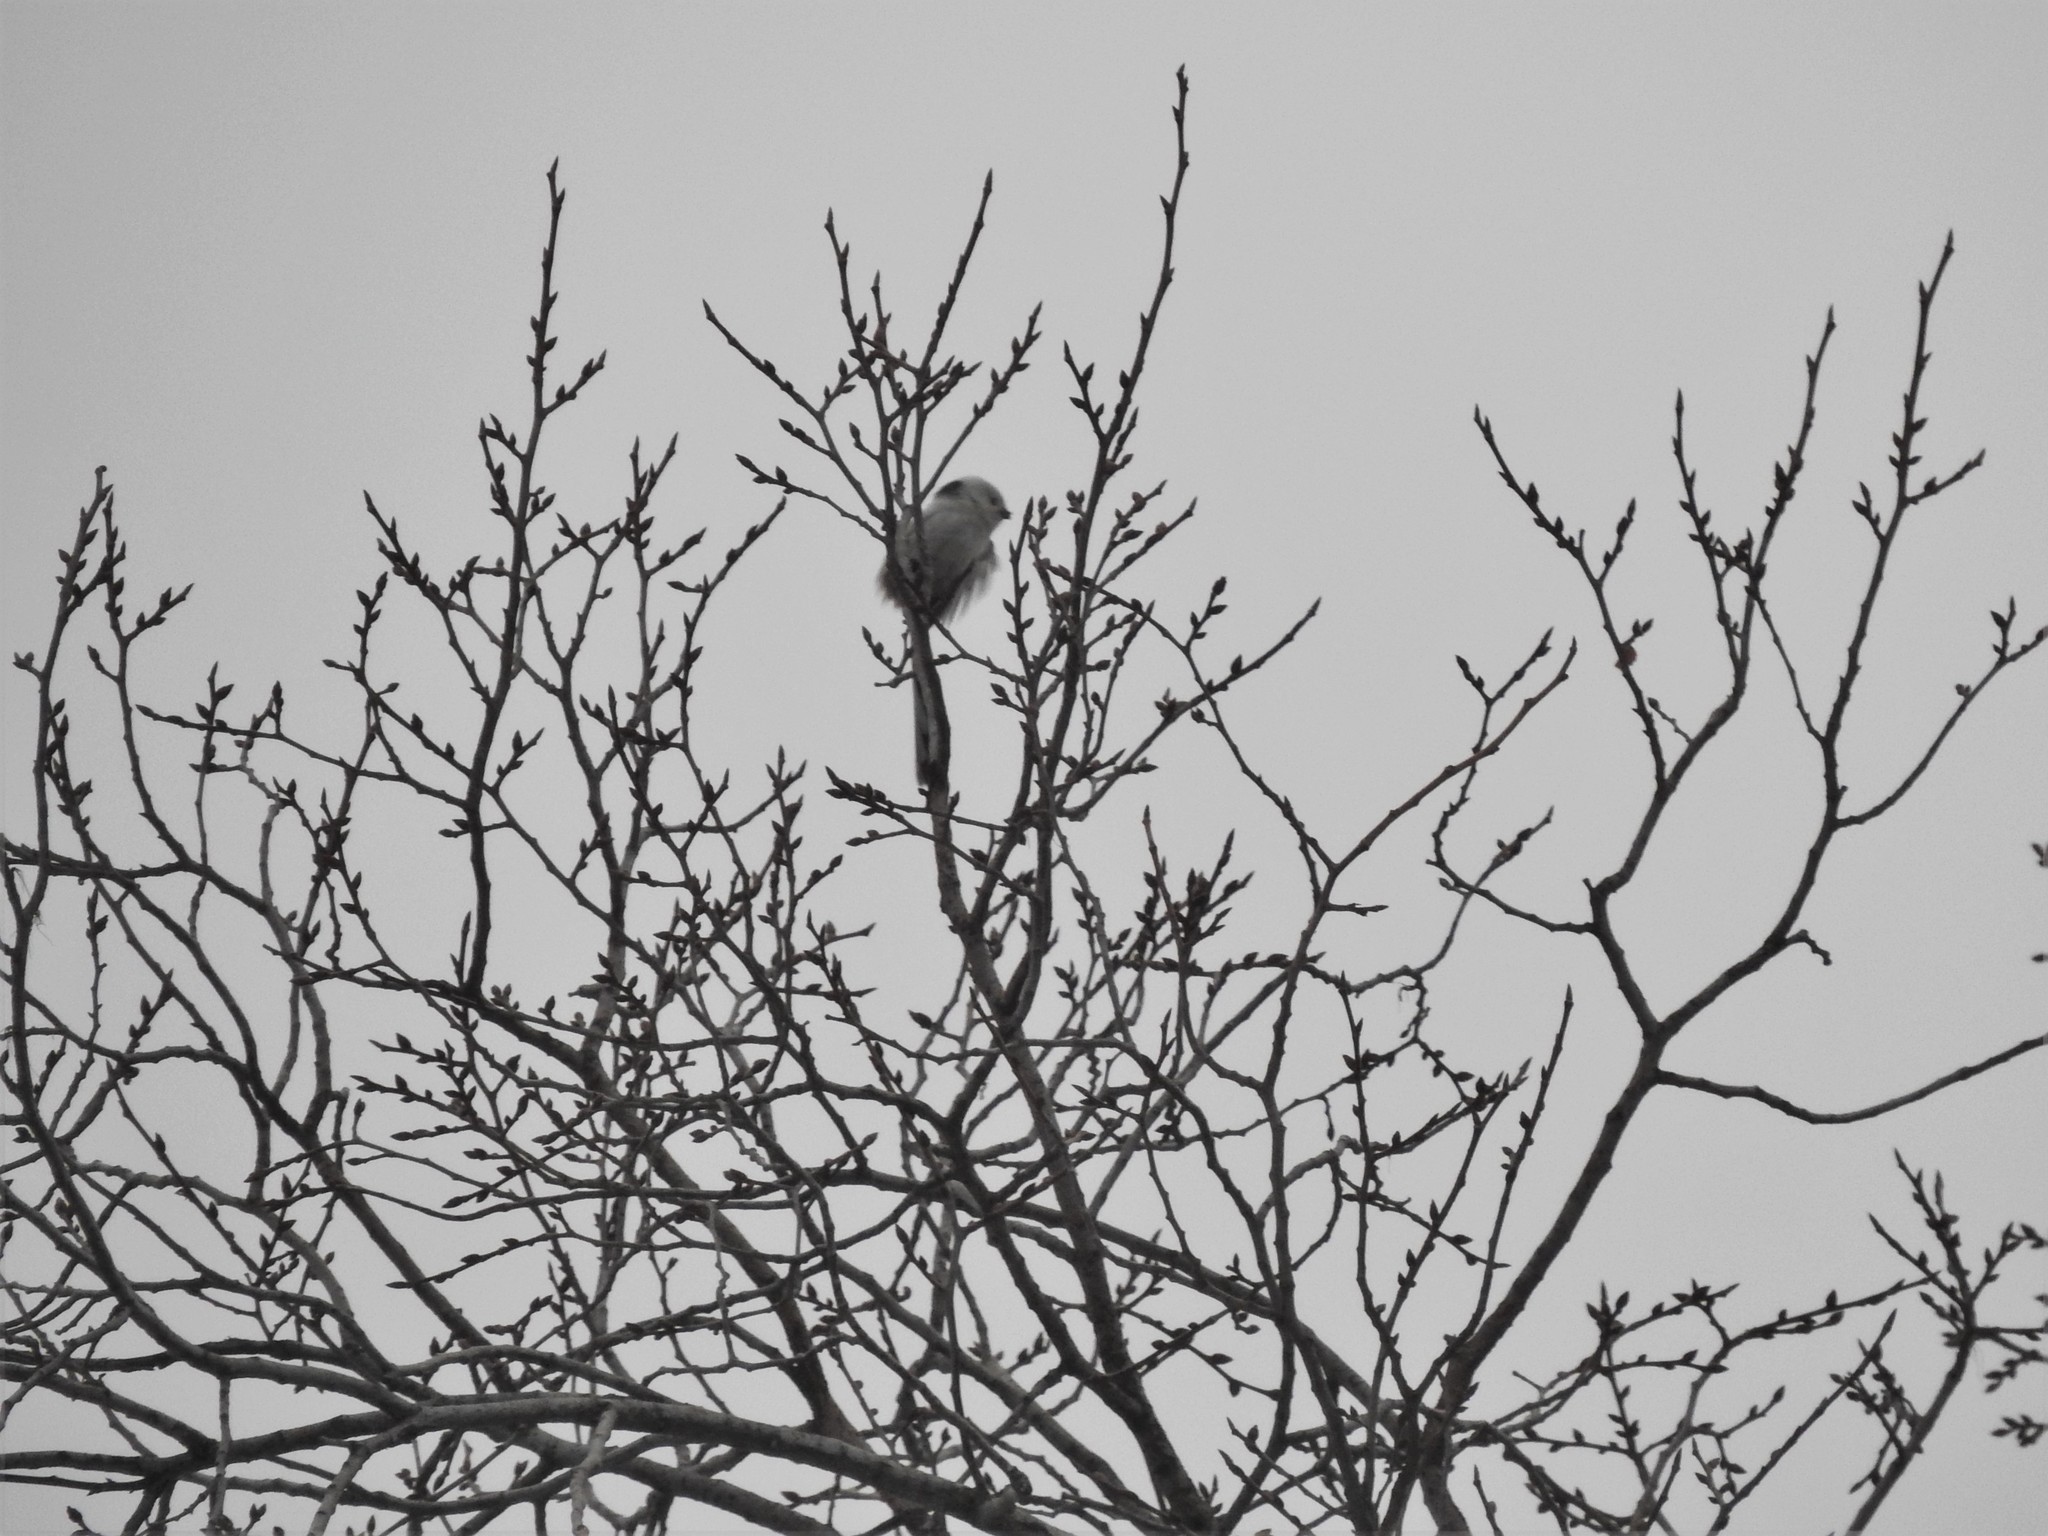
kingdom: Animalia
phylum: Chordata
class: Aves
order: Passeriformes
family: Aegithalidae
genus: Aegithalos
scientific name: Aegithalos caudatus
